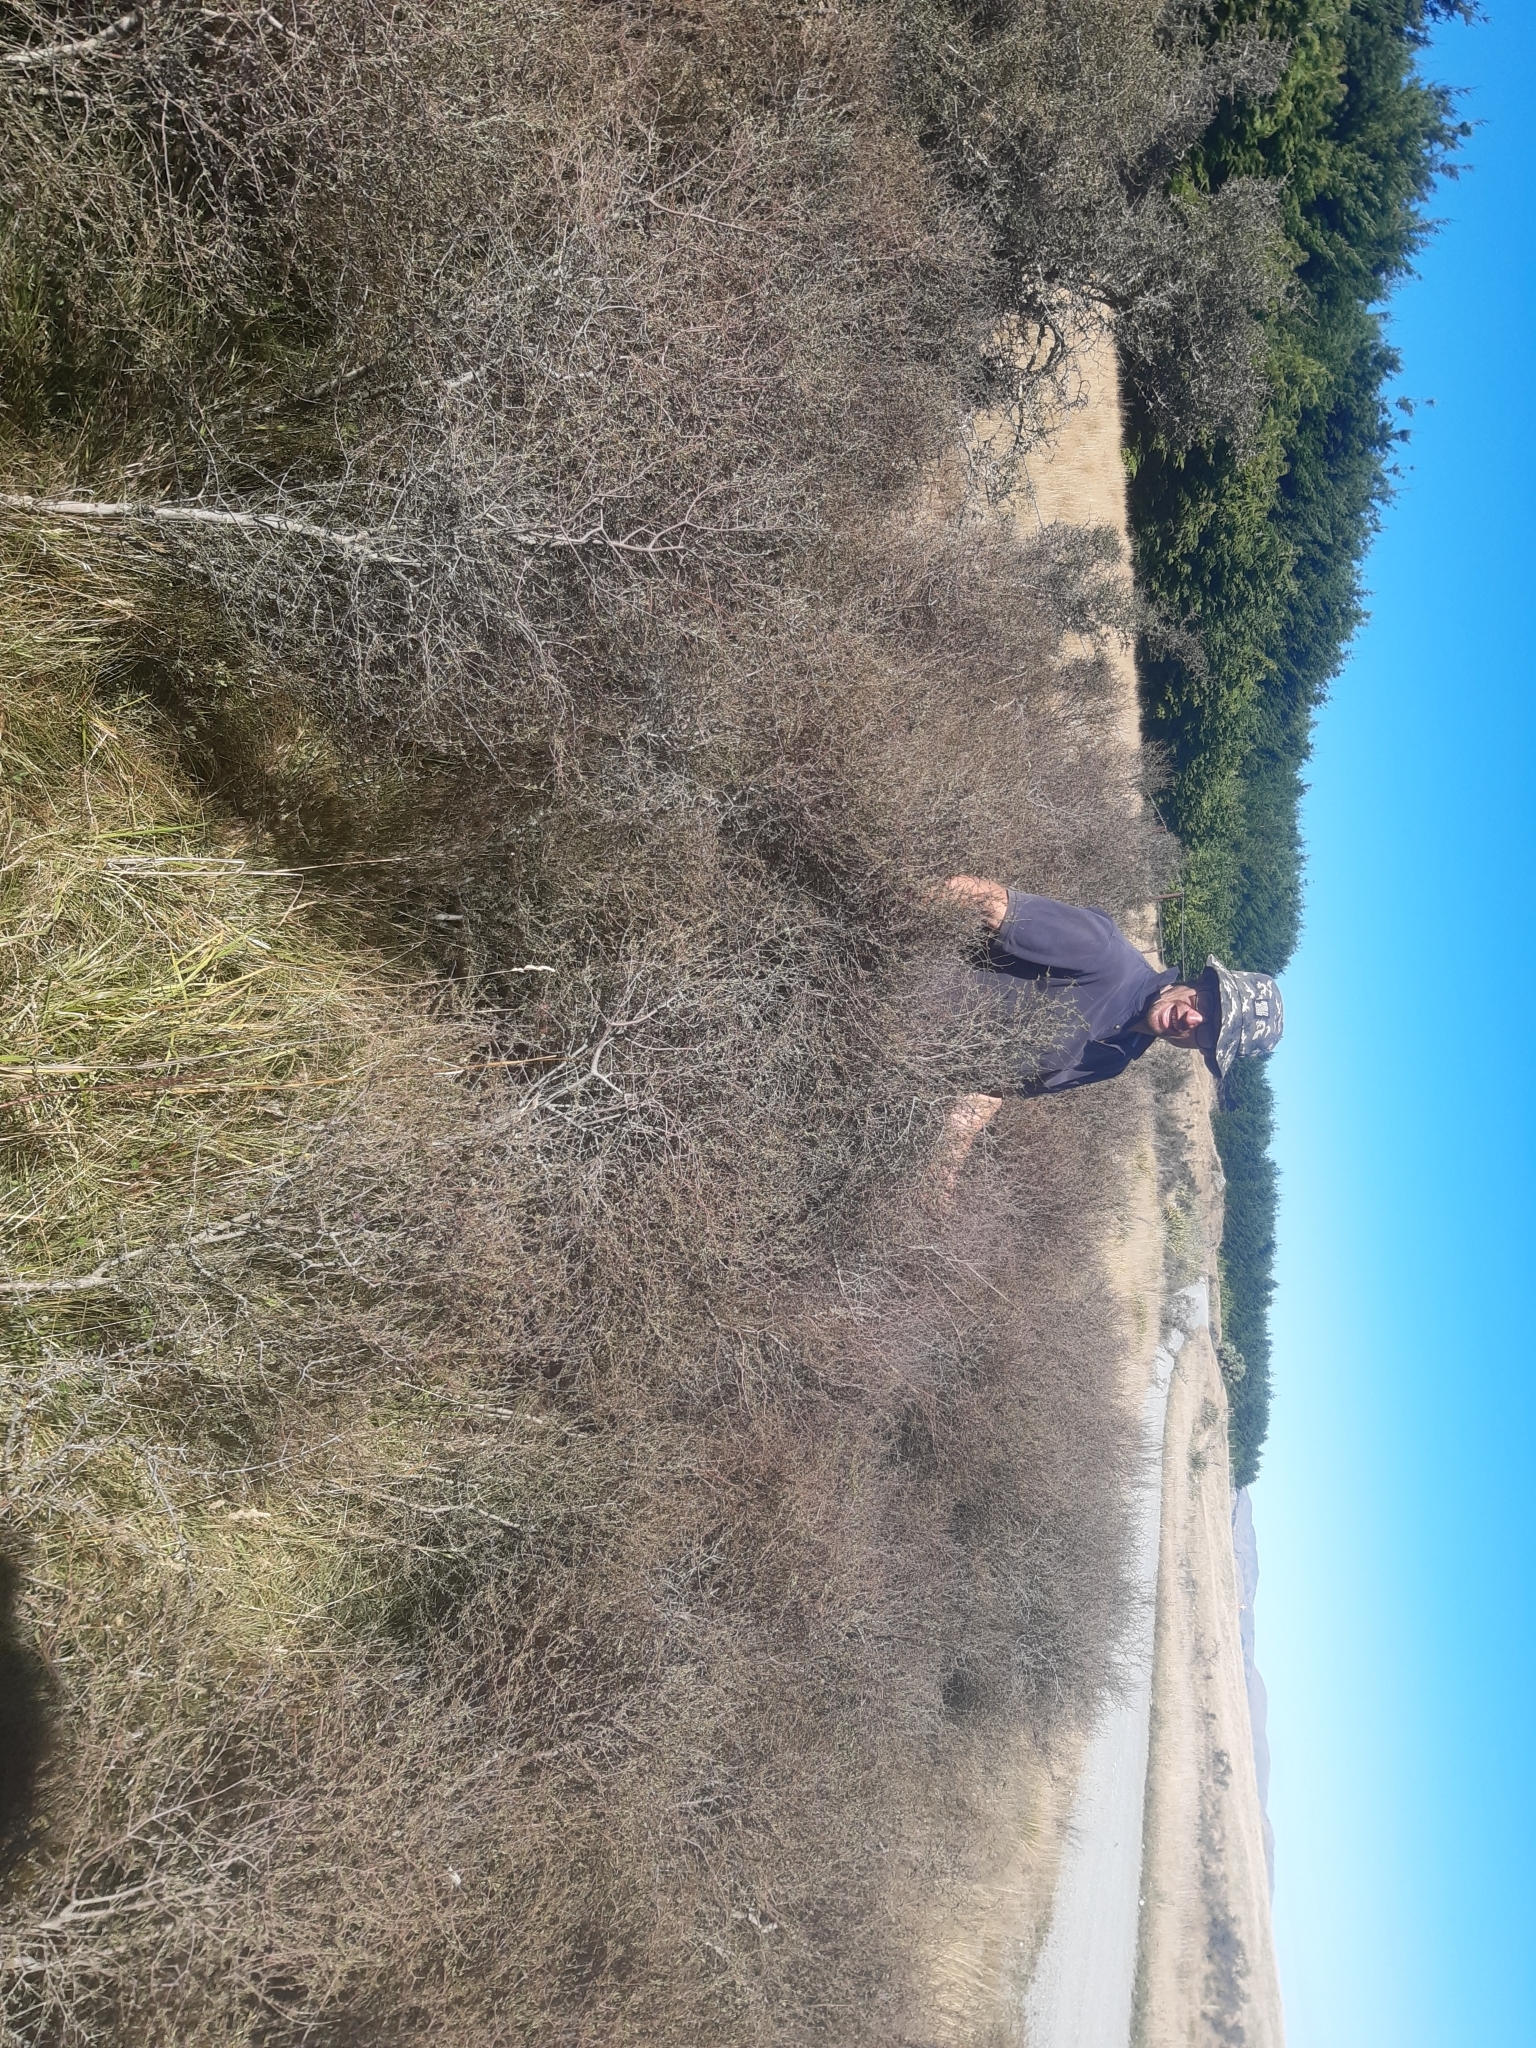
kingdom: Plantae
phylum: Tracheophyta
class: Magnoliopsida
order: Gentianales
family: Rubiaceae
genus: Coprosma
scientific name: Coprosma intertexta
